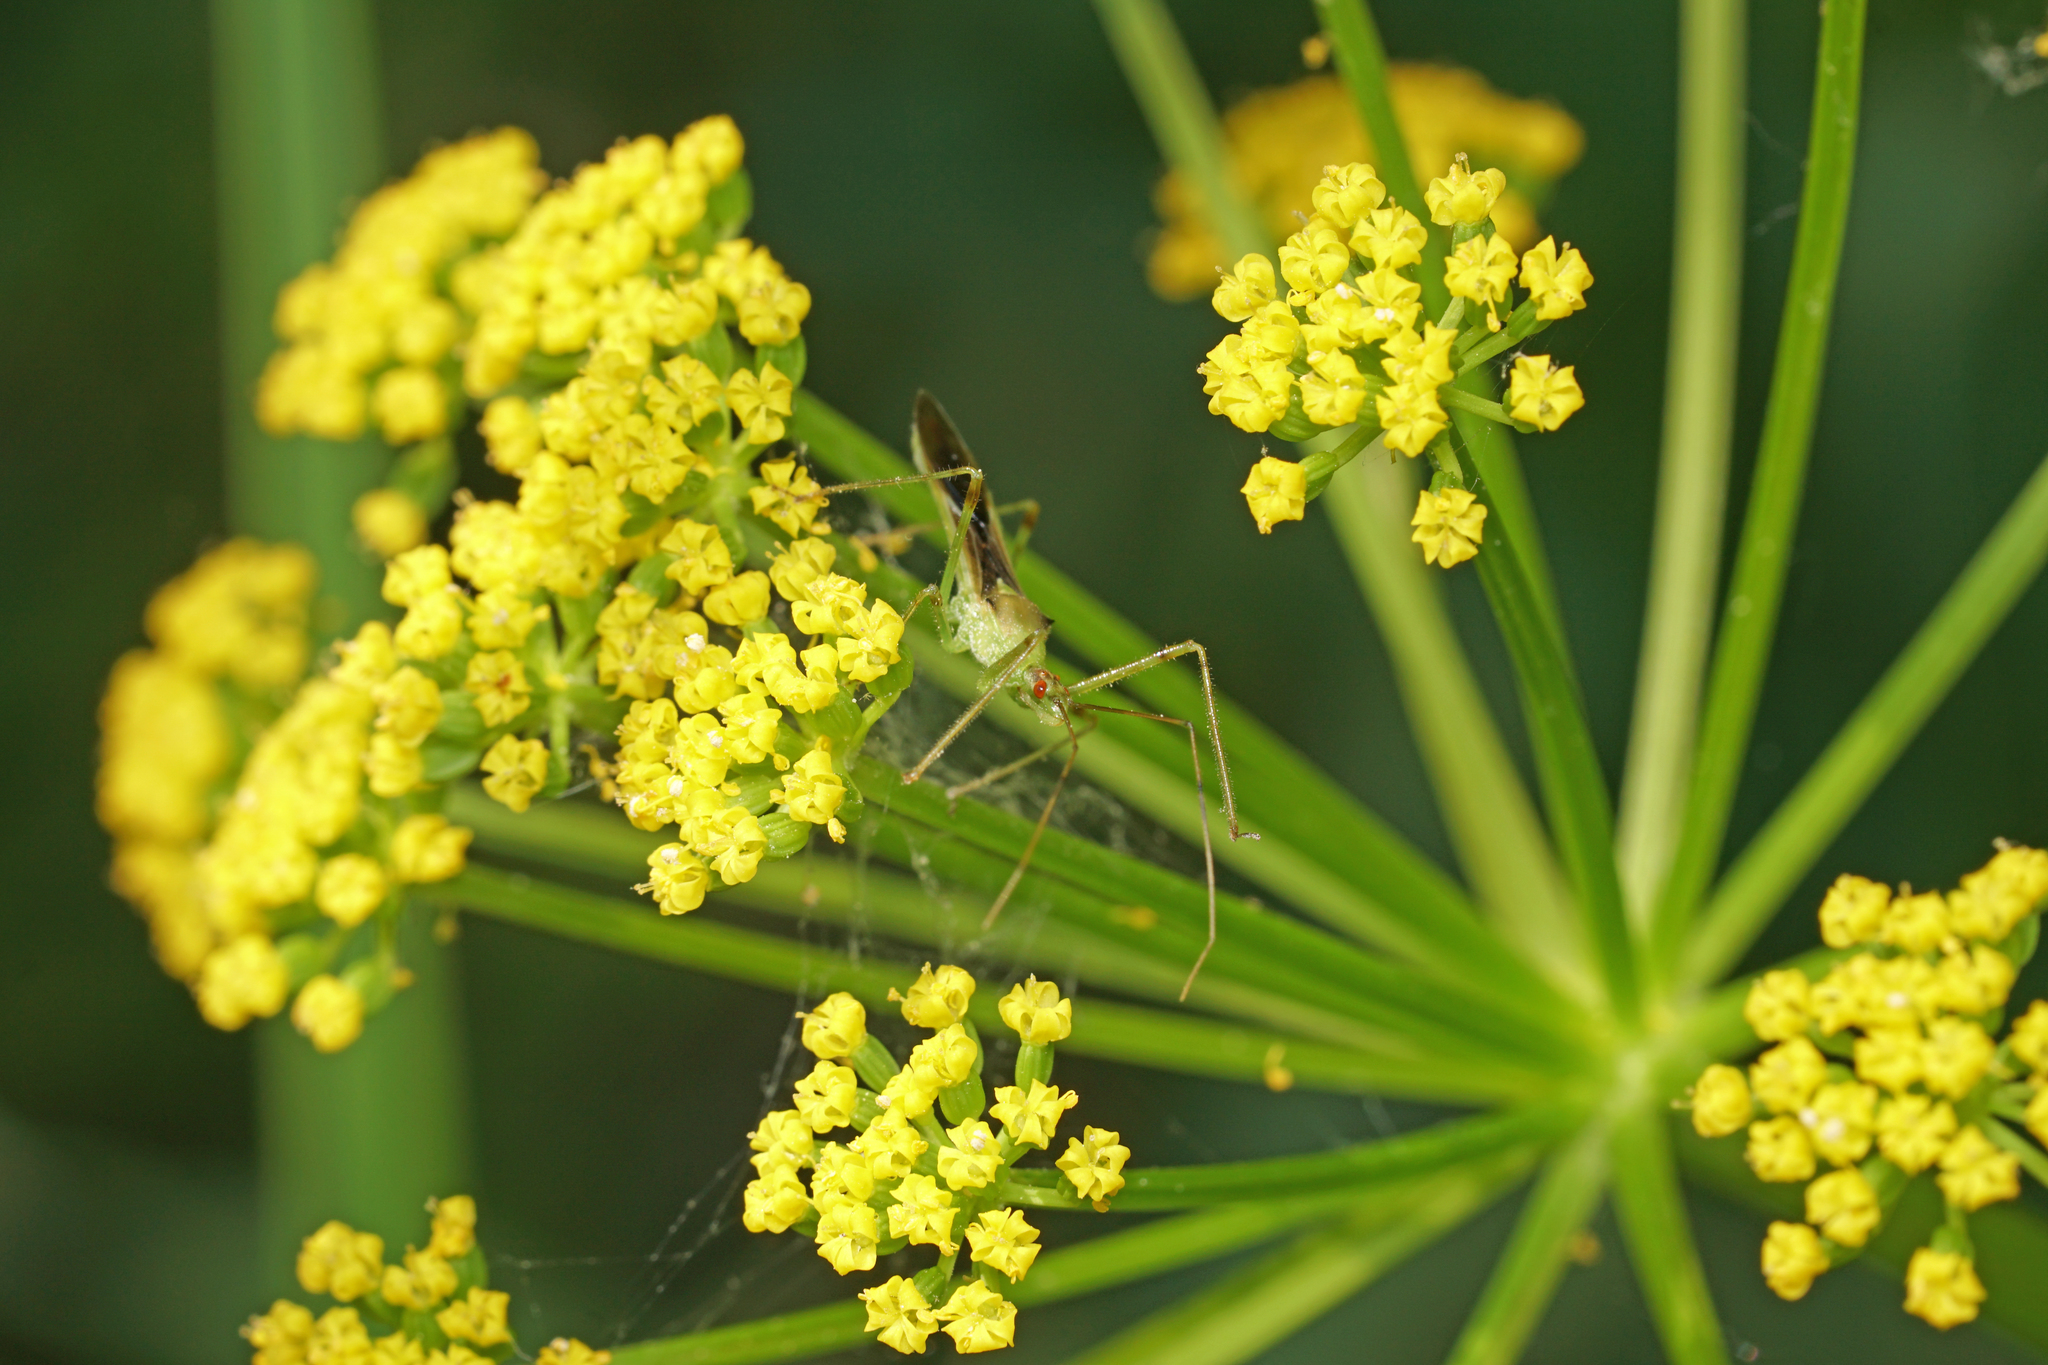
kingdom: Animalia
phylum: Arthropoda
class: Insecta
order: Hemiptera
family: Reduviidae
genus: Zelus
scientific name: Zelus luridus
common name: Pale green assassin bug
